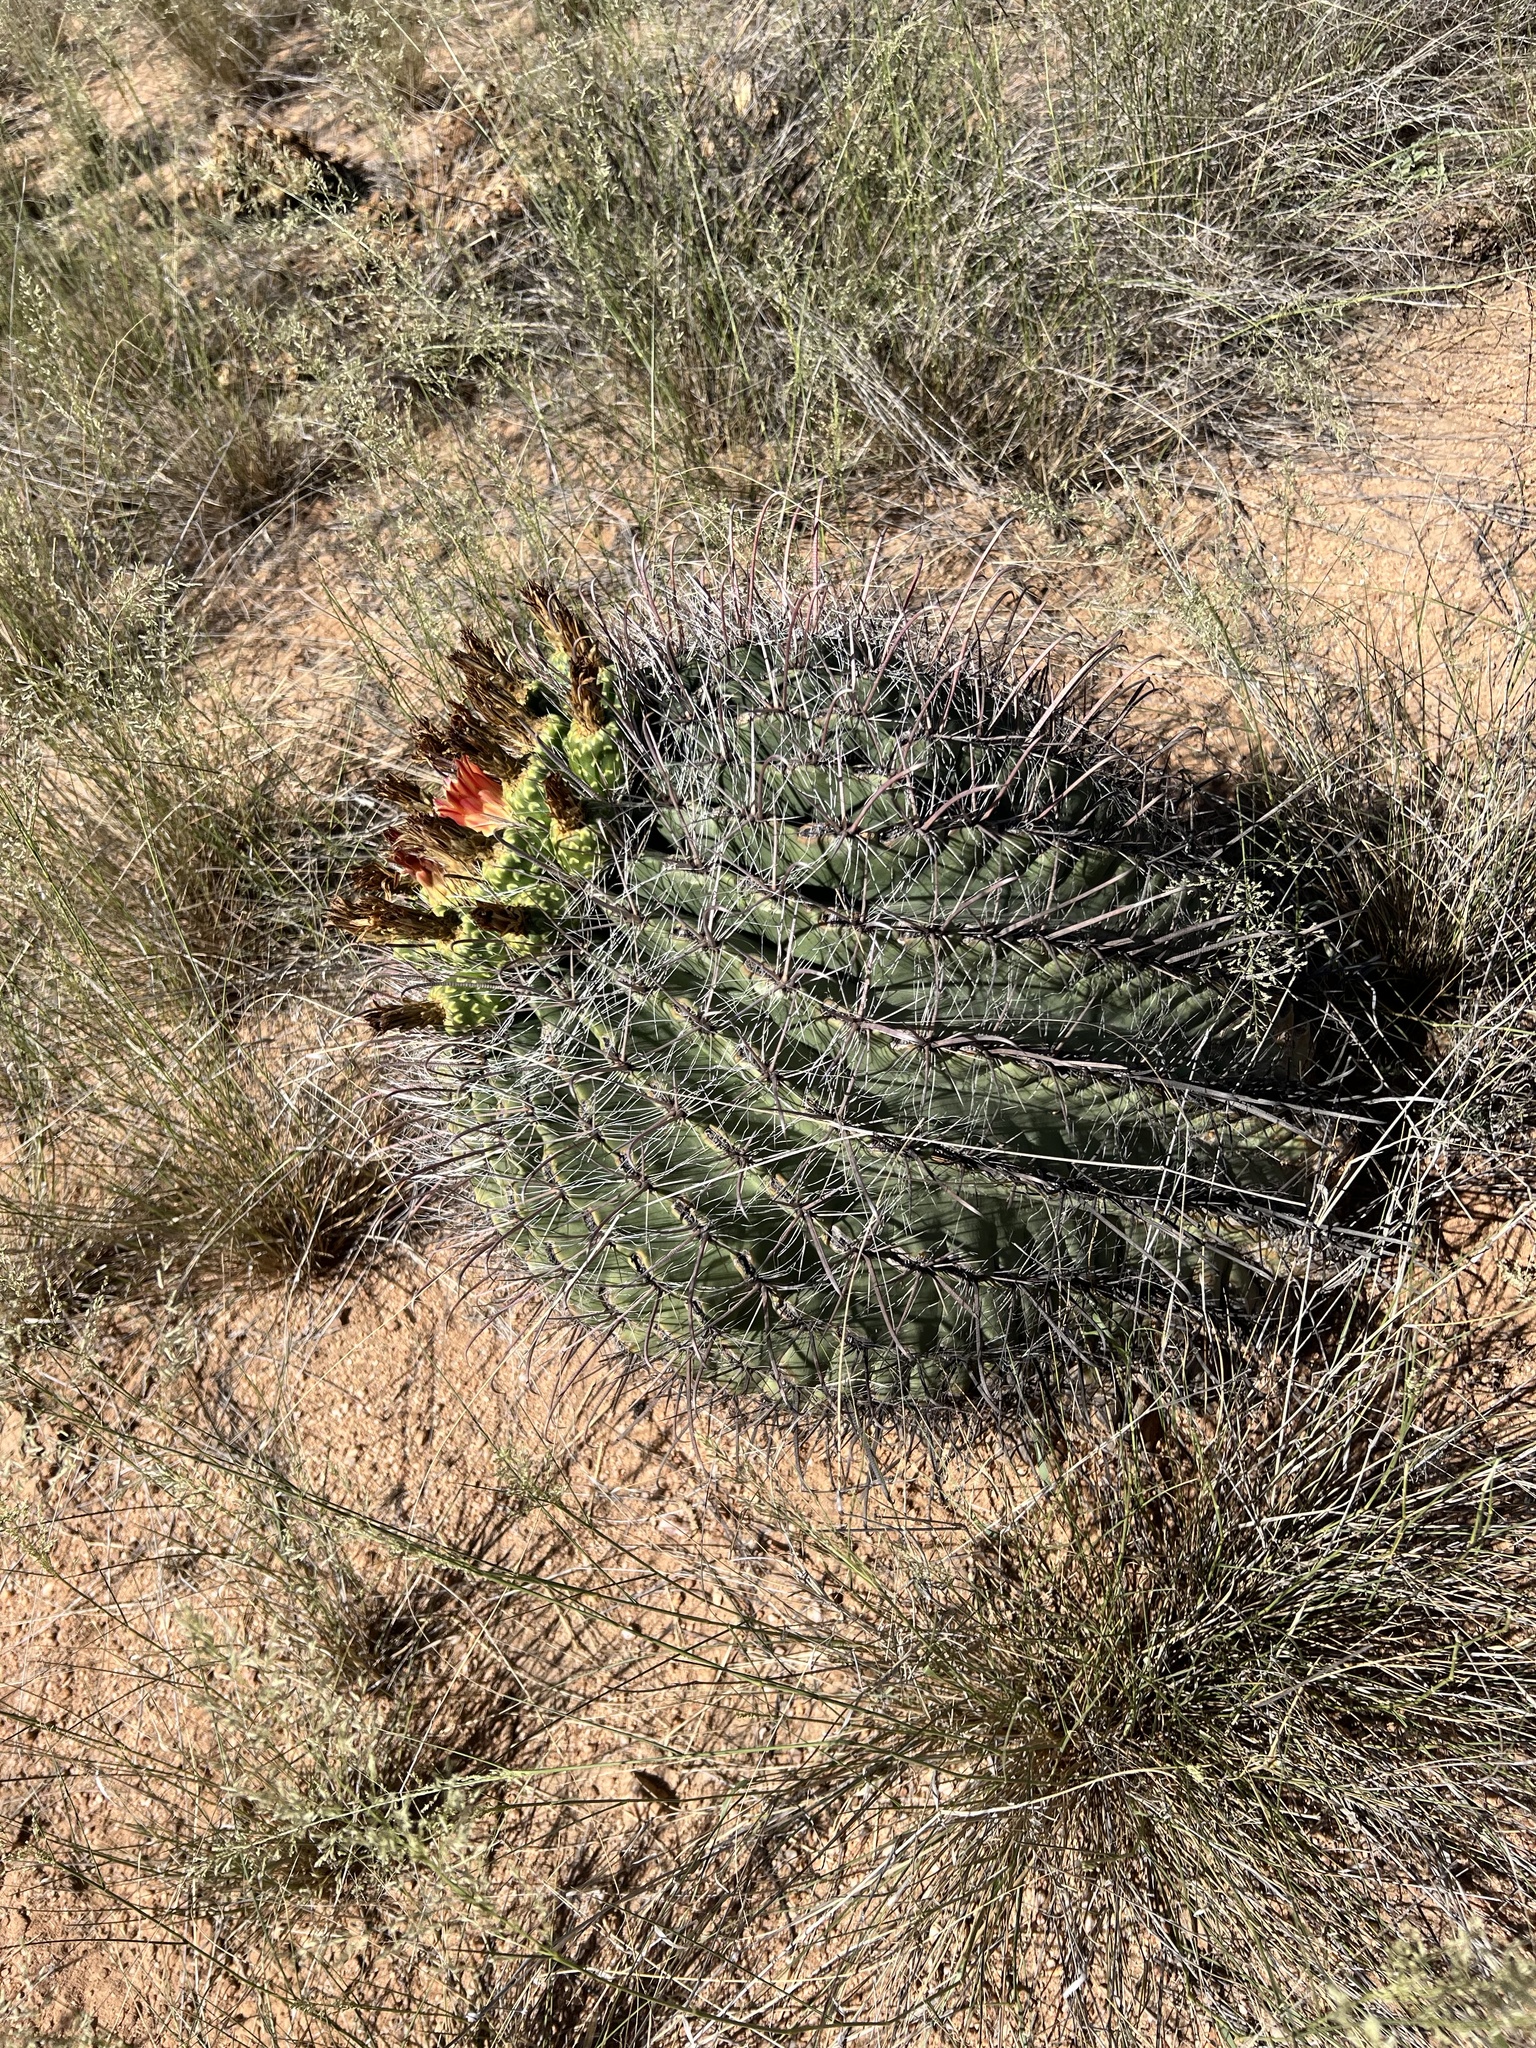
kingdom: Plantae
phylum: Tracheophyta
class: Magnoliopsida
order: Caryophyllales
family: Cactaceae
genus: Ferocactus
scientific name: Ferocactus wislizeni
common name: Candy barrel cactus
